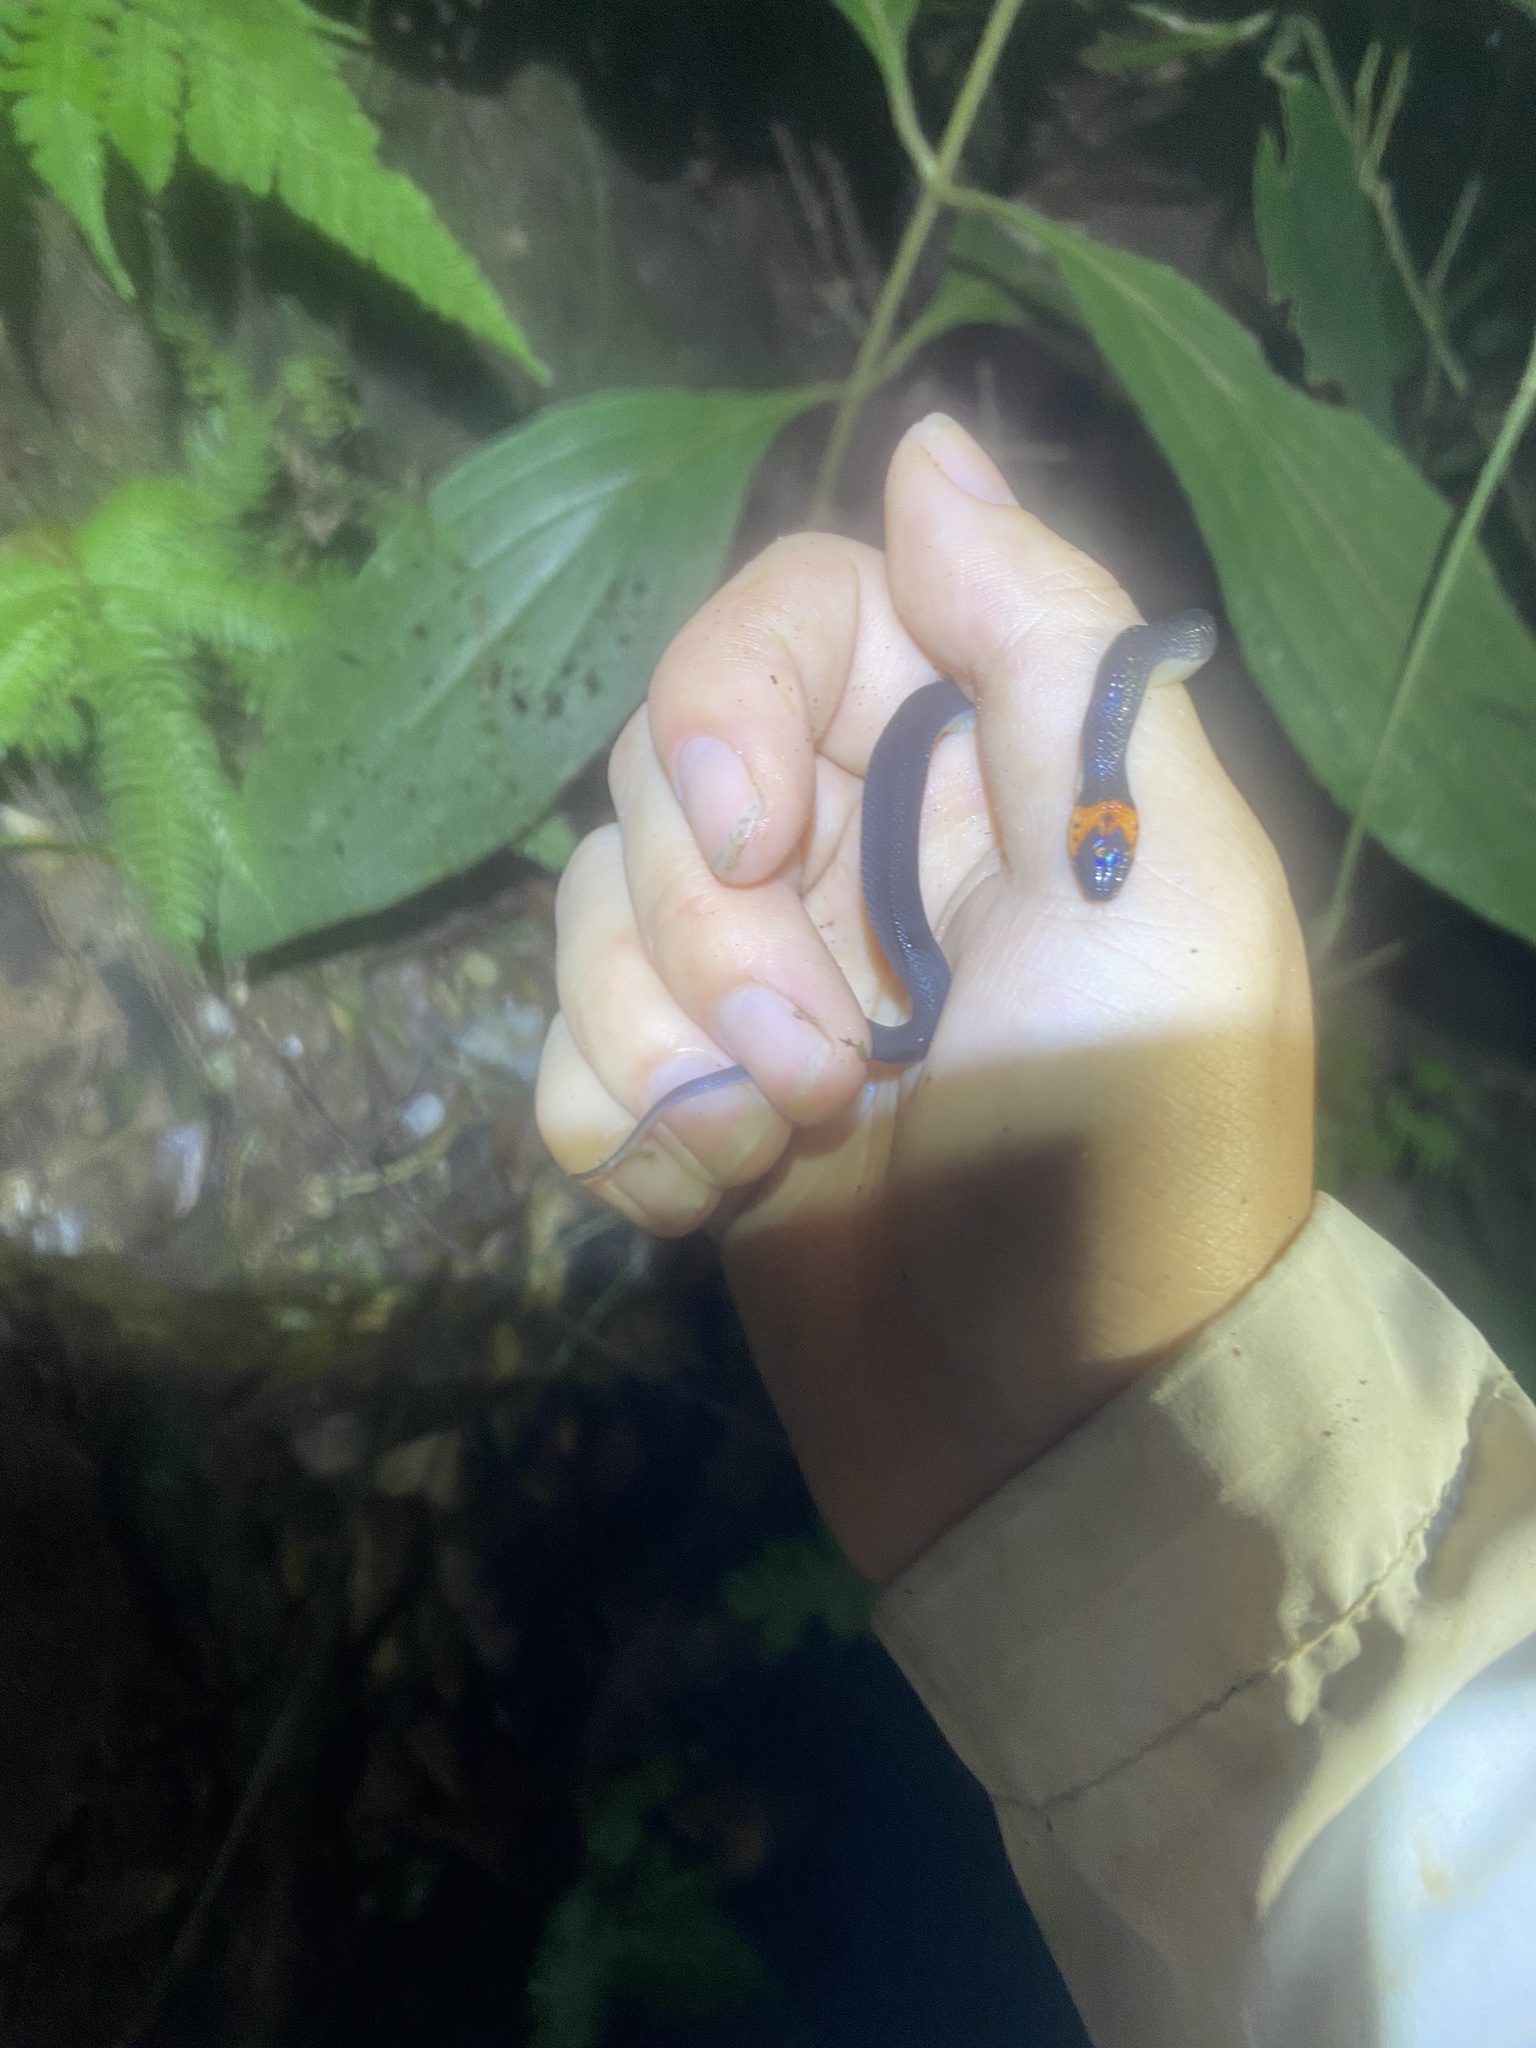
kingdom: Animalia
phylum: Chordata
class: Squamata
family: Colubridae
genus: Ninia
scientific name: Ninia atrata
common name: Hallowell's coffee snake
